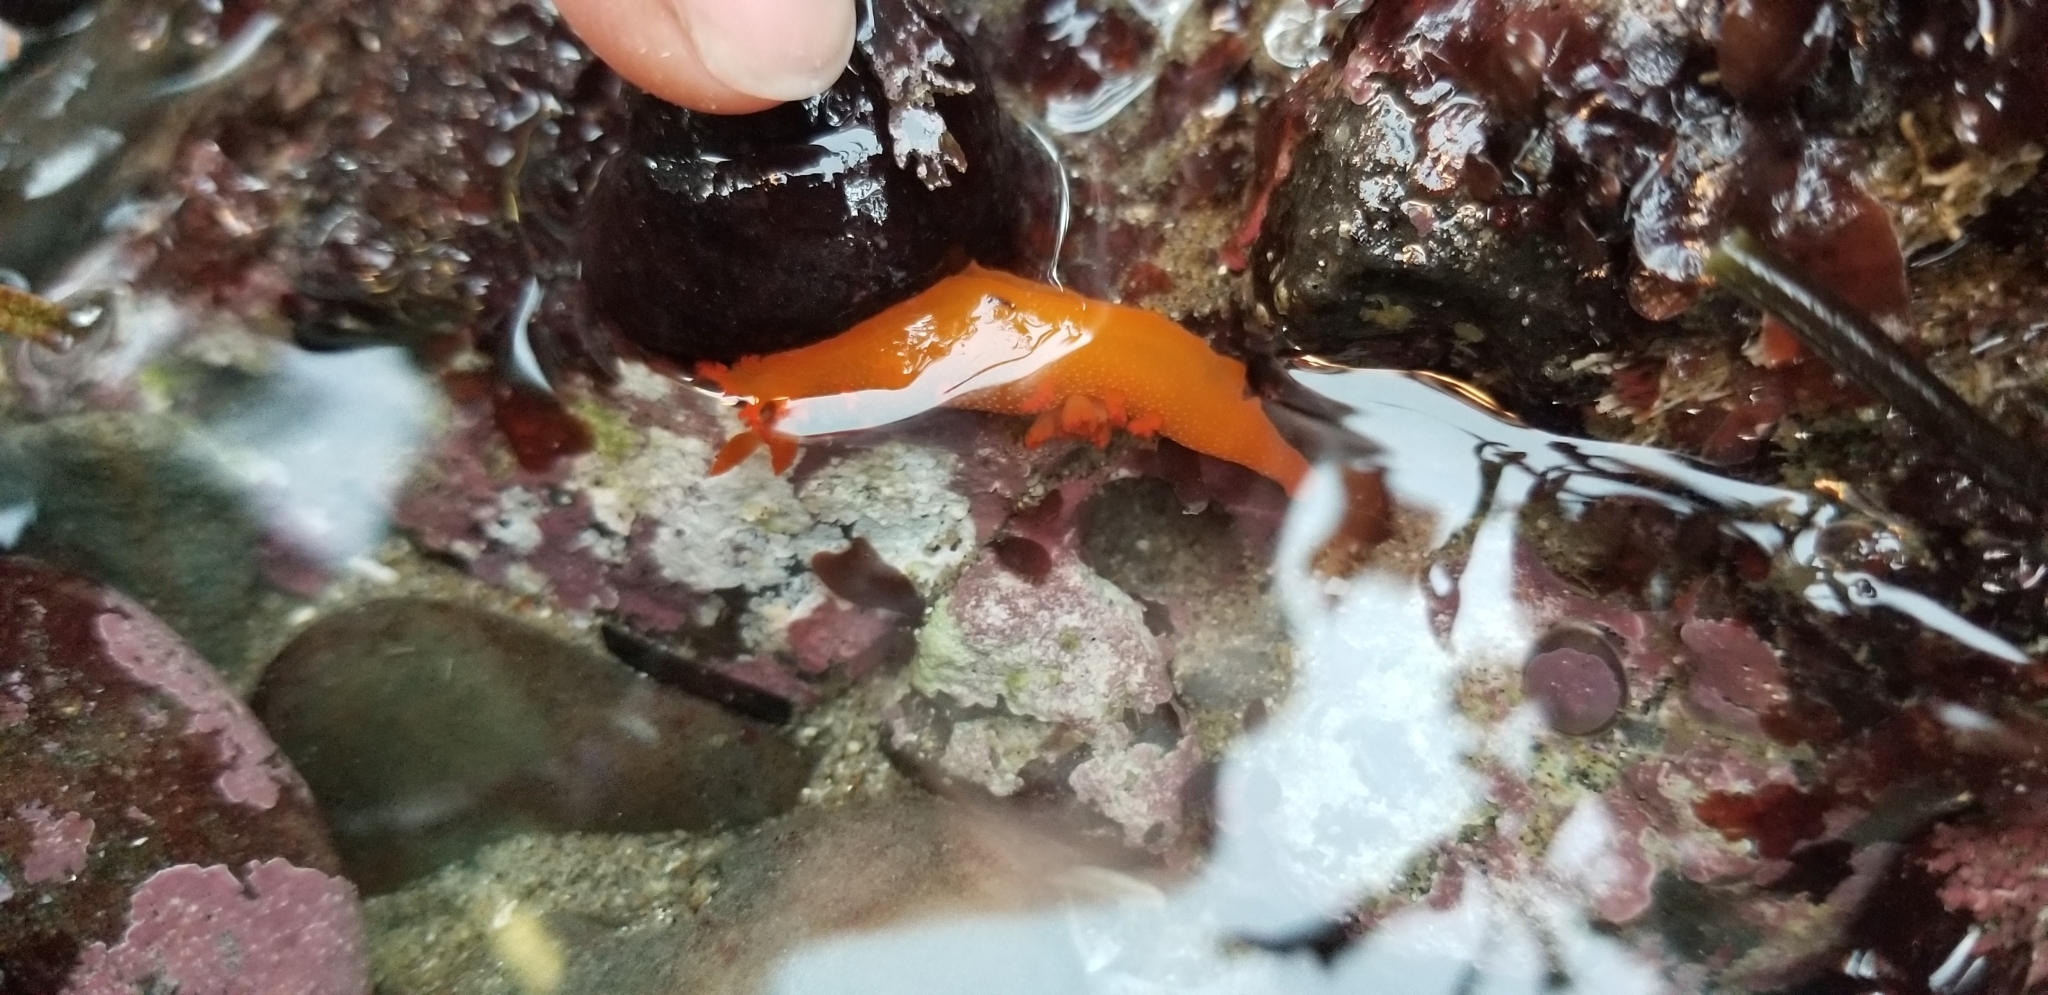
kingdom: Animalia
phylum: Mollusca
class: Gastropoda
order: Nudibranchia
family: Polyceridae
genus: Triopha
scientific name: Triopha maculata
